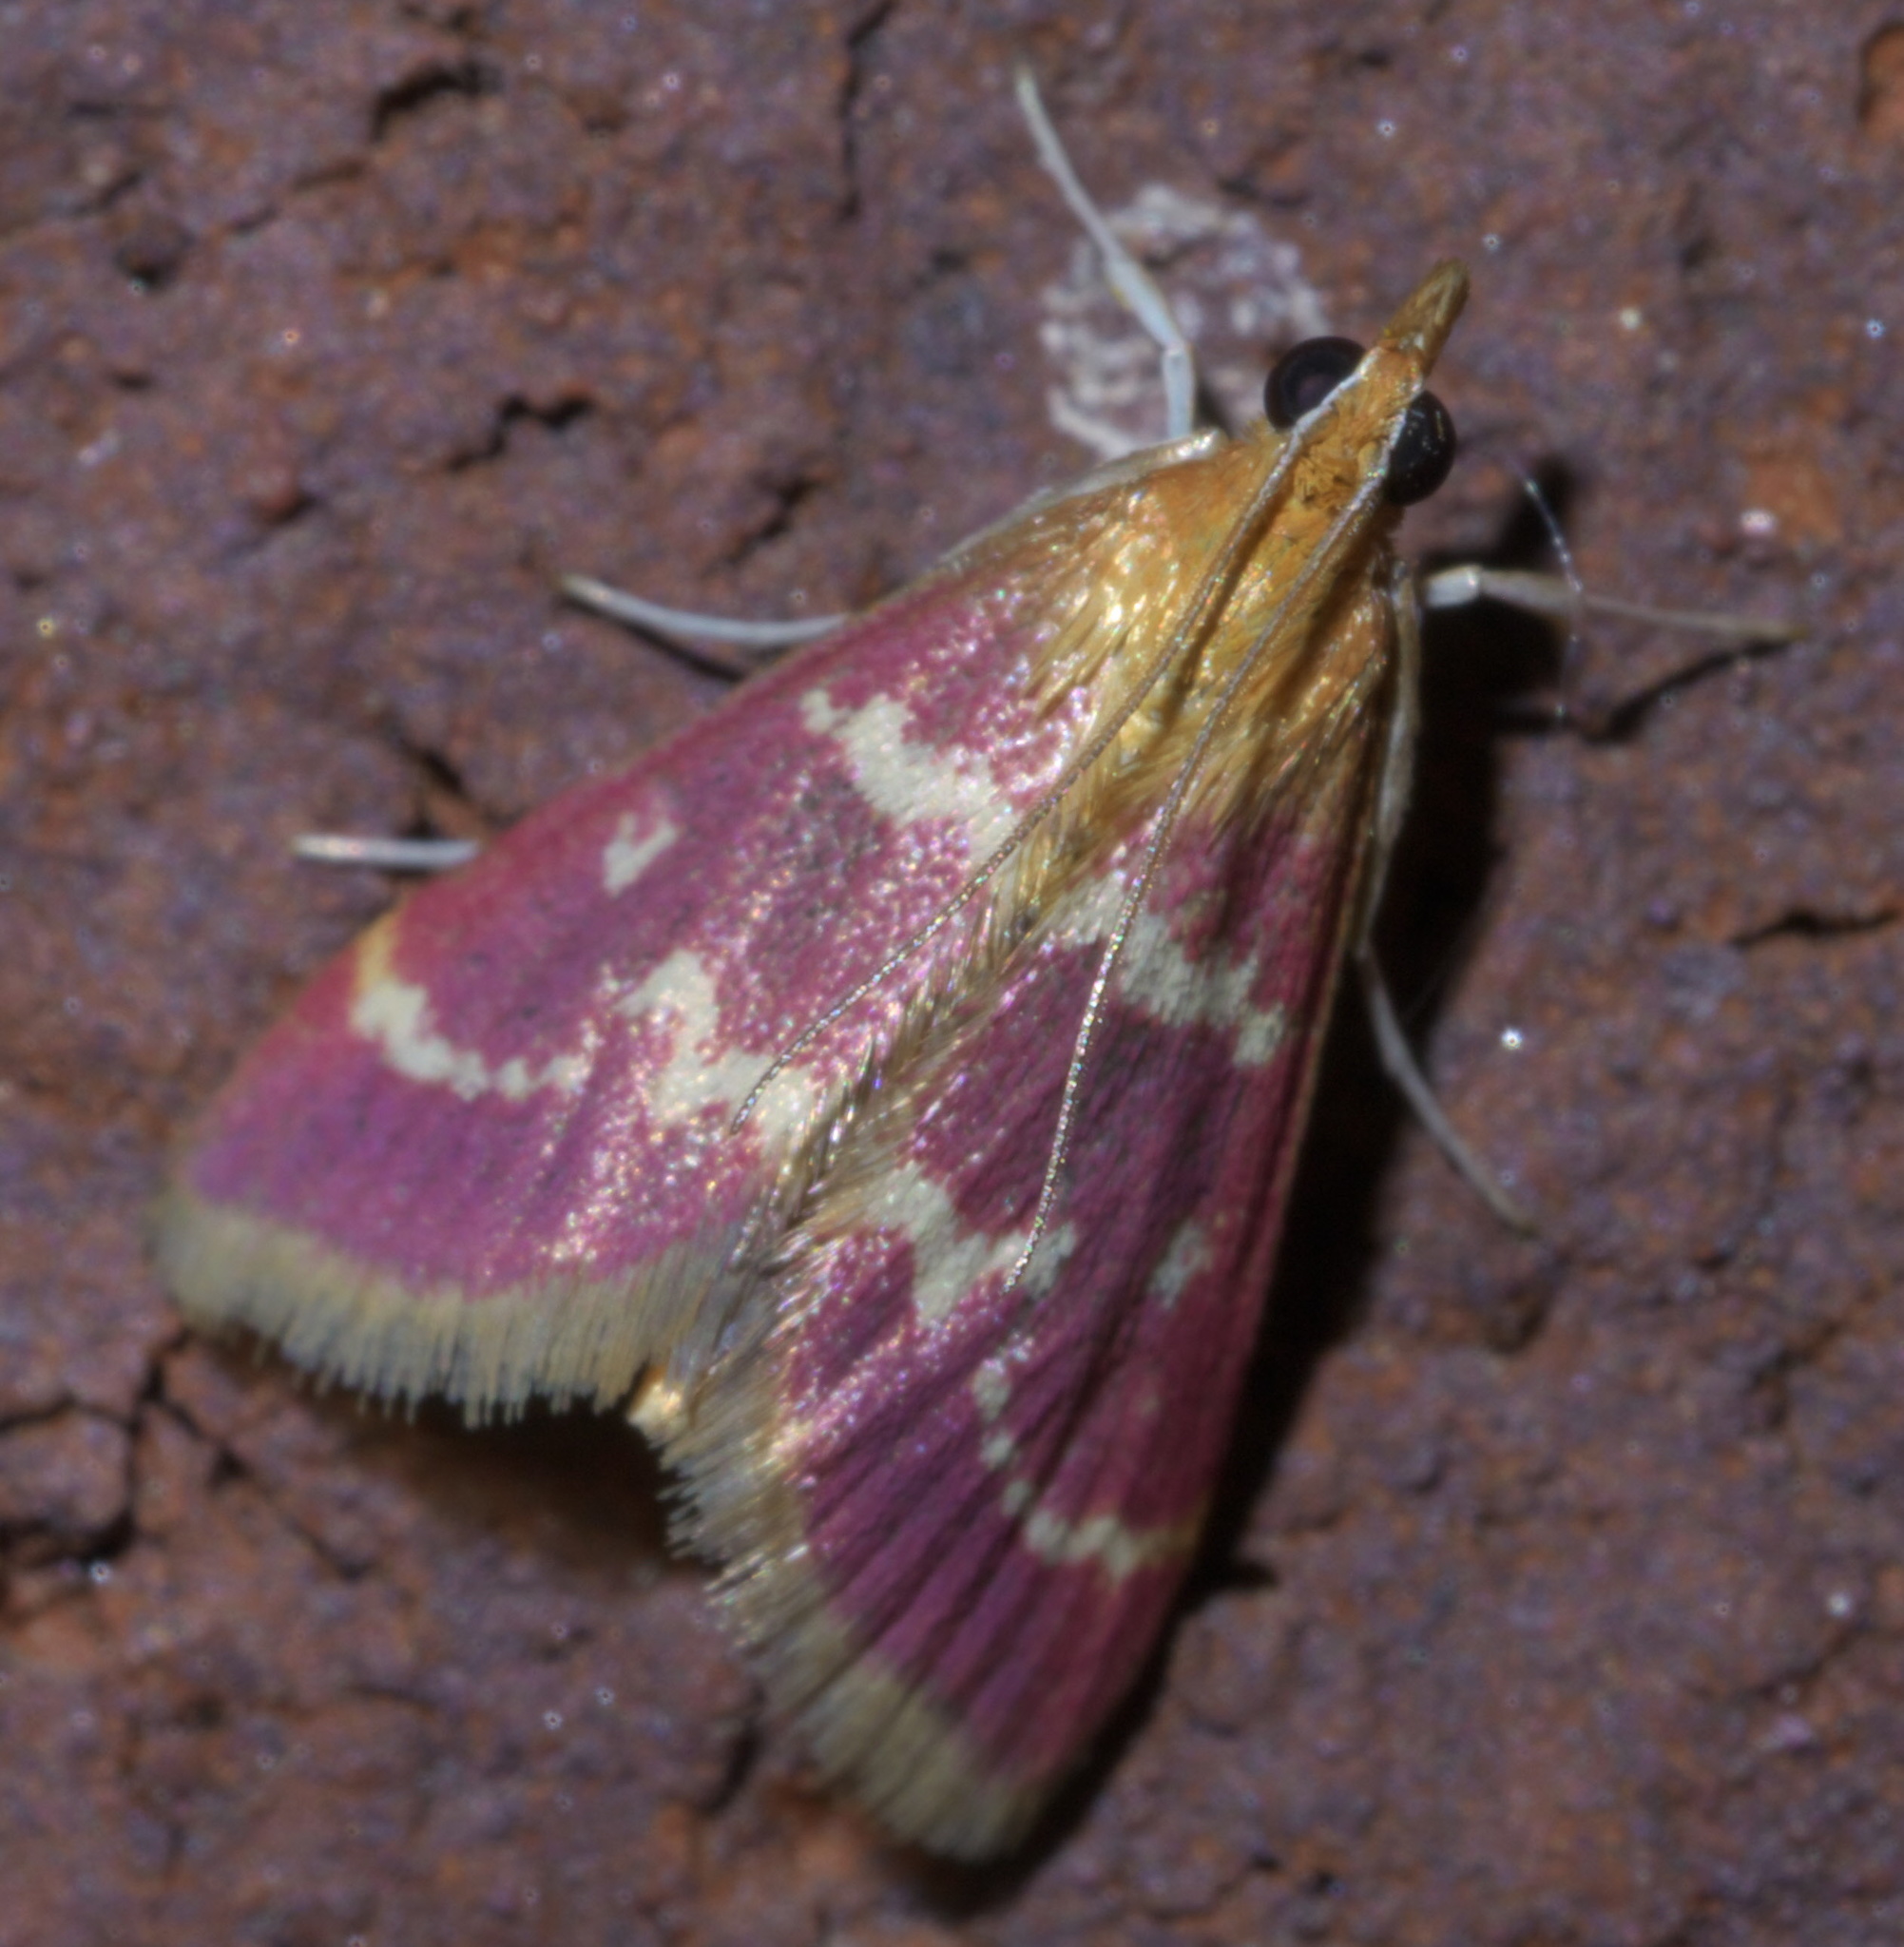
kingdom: Animalia
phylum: Arthropoda
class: Insecta
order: Lepidoptera
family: Crambidae
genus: Pyrausta
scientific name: Pyrausta signatalis
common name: Raspberry pyrausta moth
